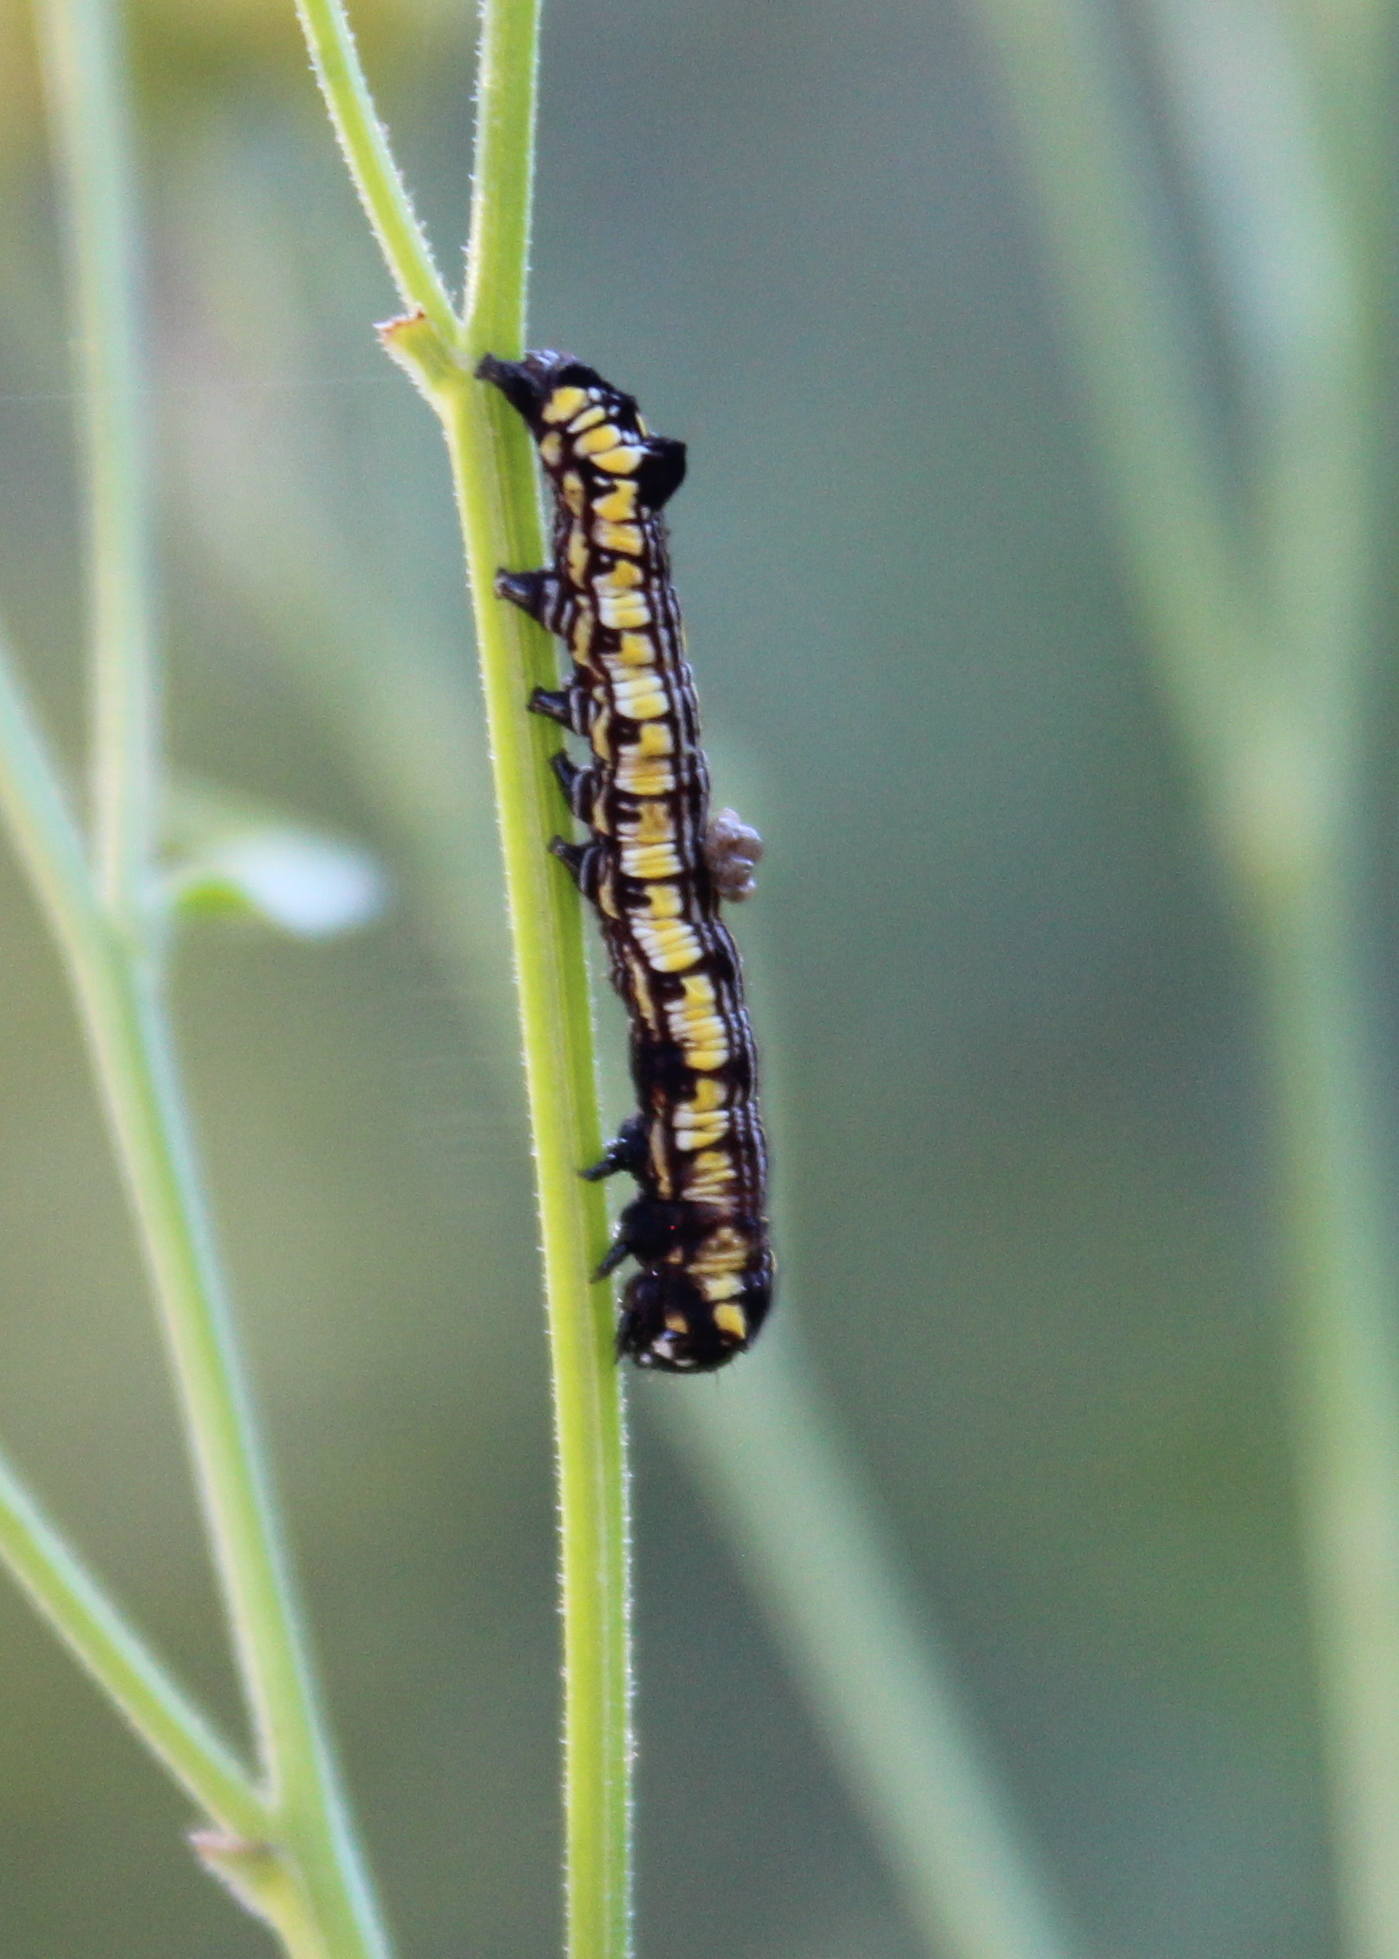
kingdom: Animalia
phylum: Arthropoda
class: Insecta
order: Lepidoptera
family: Noctuidae
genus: Cucullia
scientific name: Cucullia convexipennis
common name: Brown-hooded owlet
